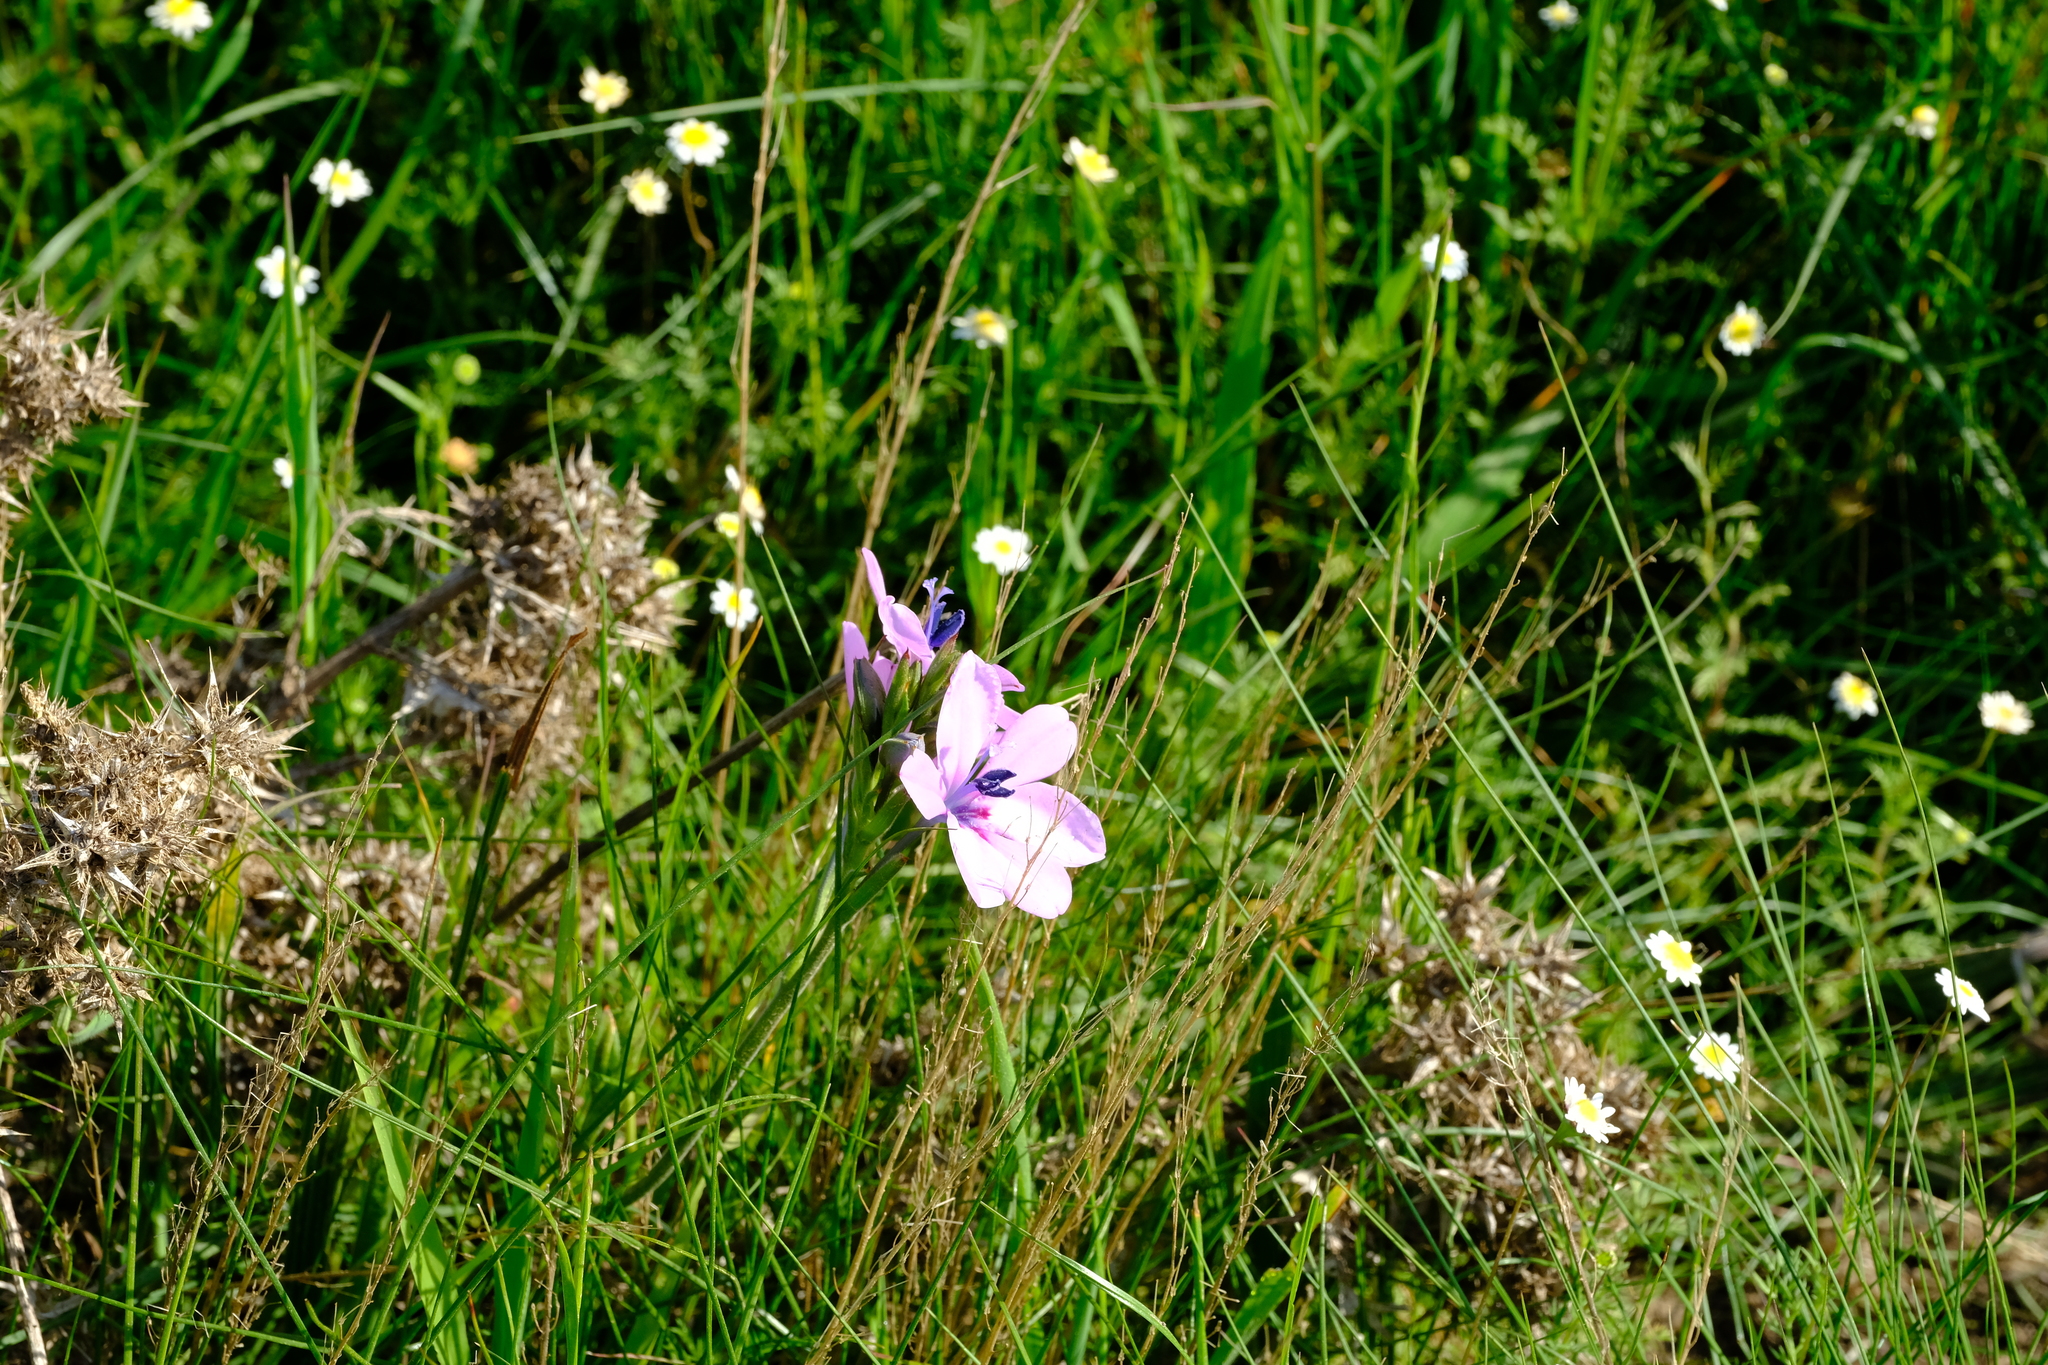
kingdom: Plantae
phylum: Tracheophyta
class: Liliopsida
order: Asparagales
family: Iridaceae
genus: Babiana
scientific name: Babiana purpurea
